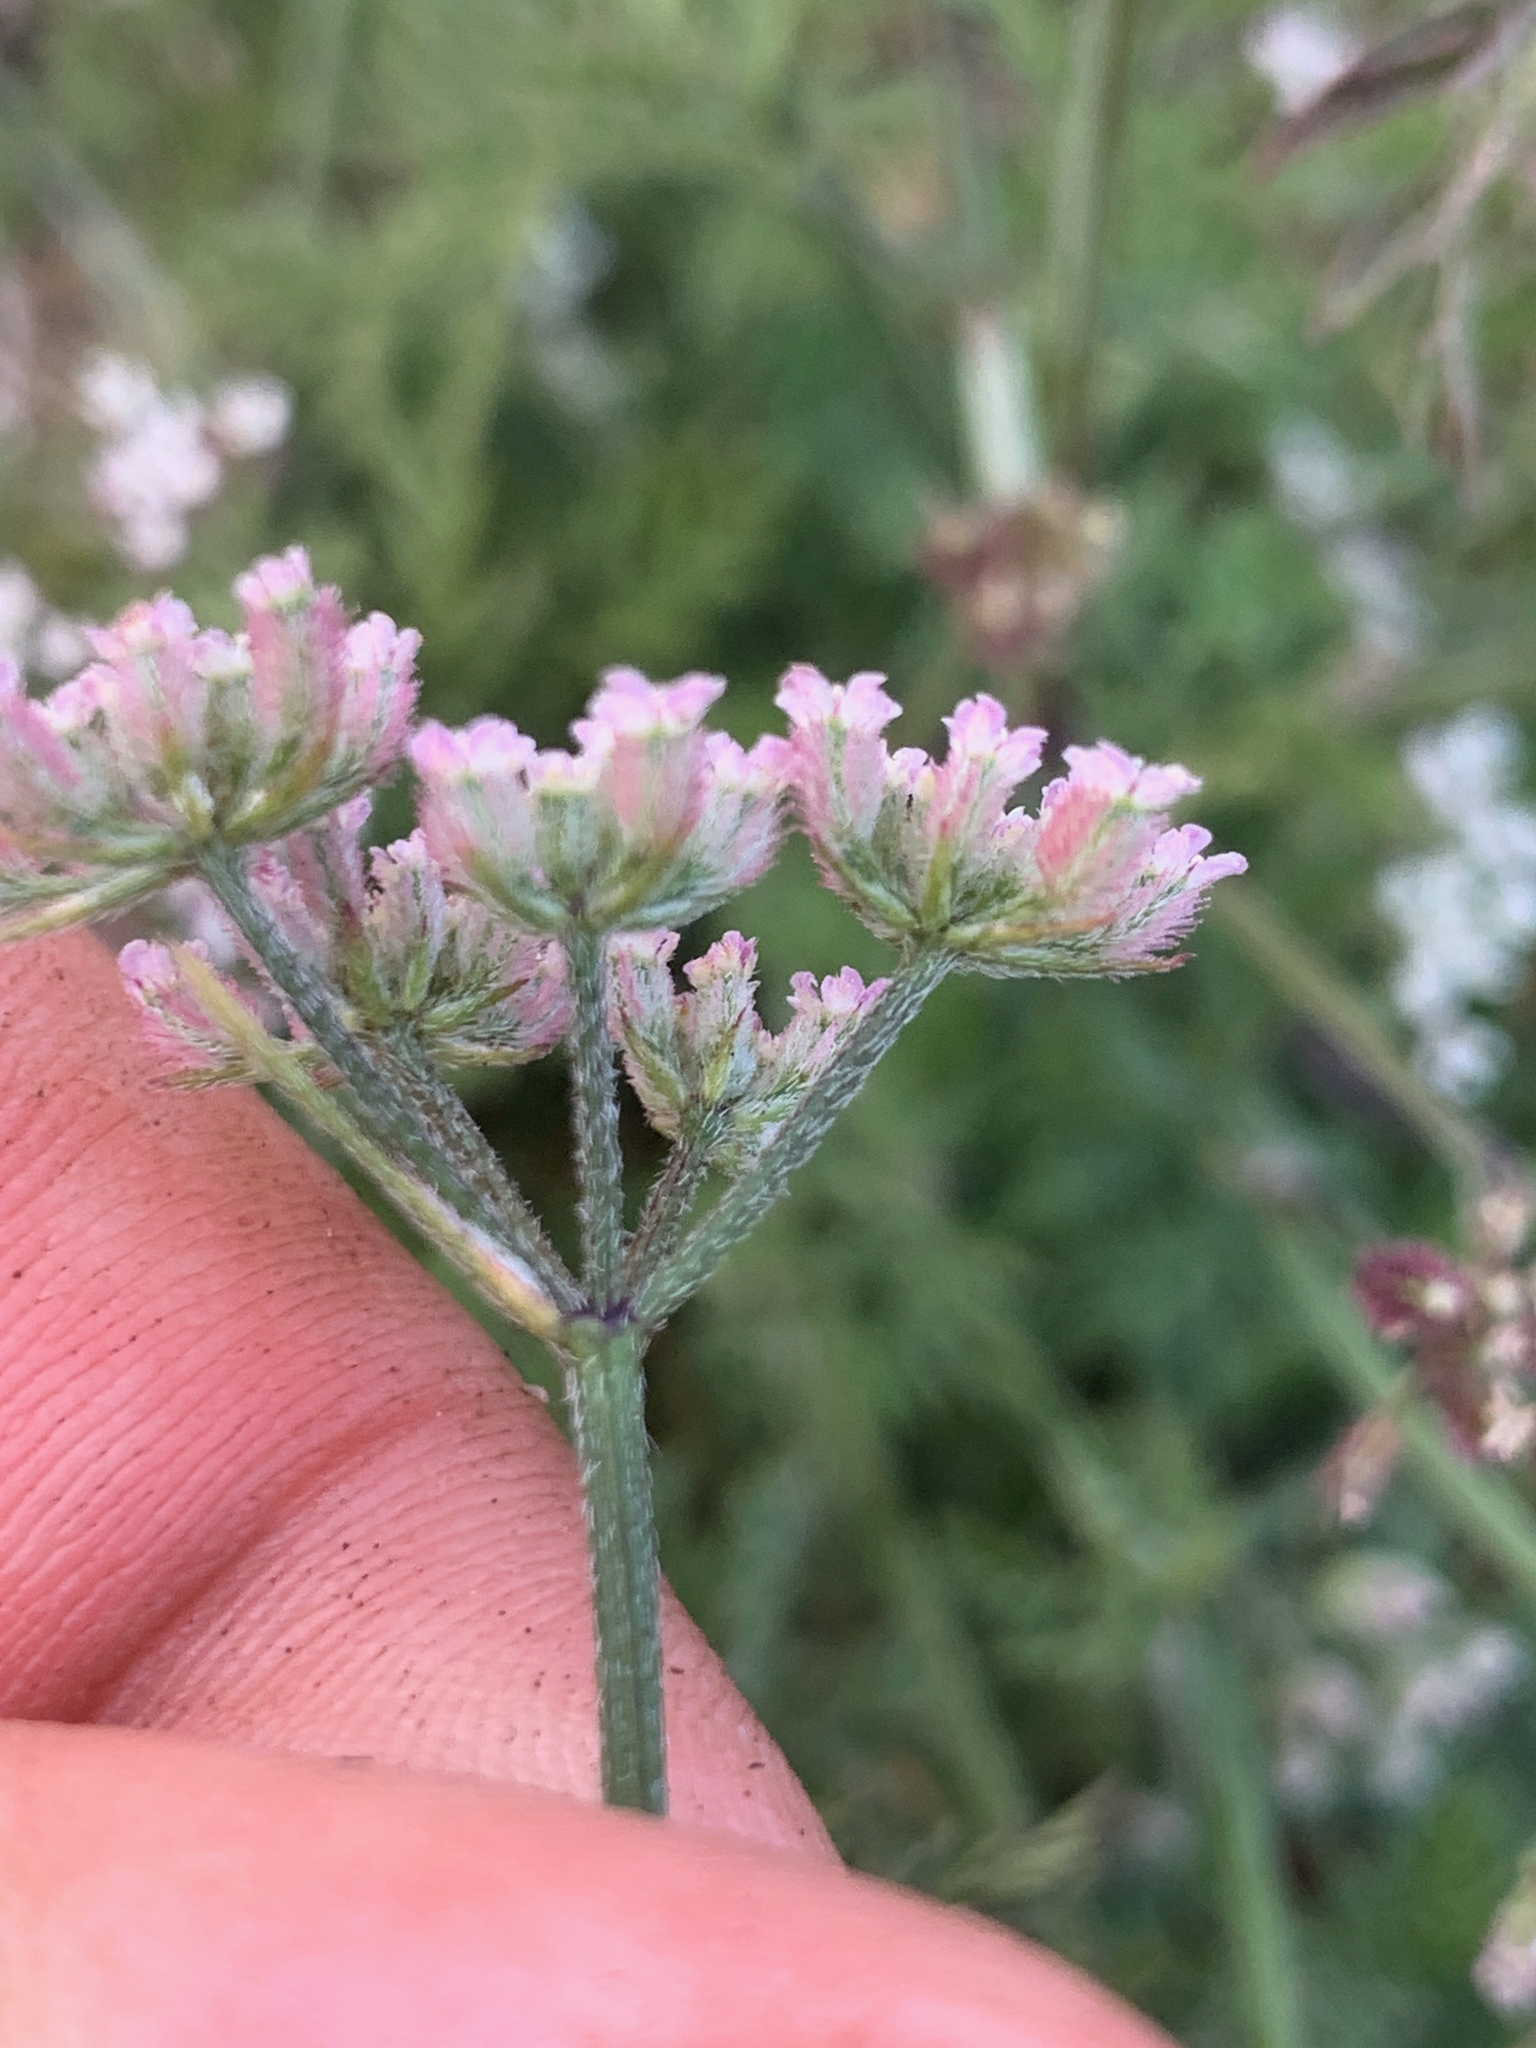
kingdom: Plantae
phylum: Tracheophyta
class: Magnoliopsida
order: Apiales
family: Apiaceae
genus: Torilis
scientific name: Torilis africana
